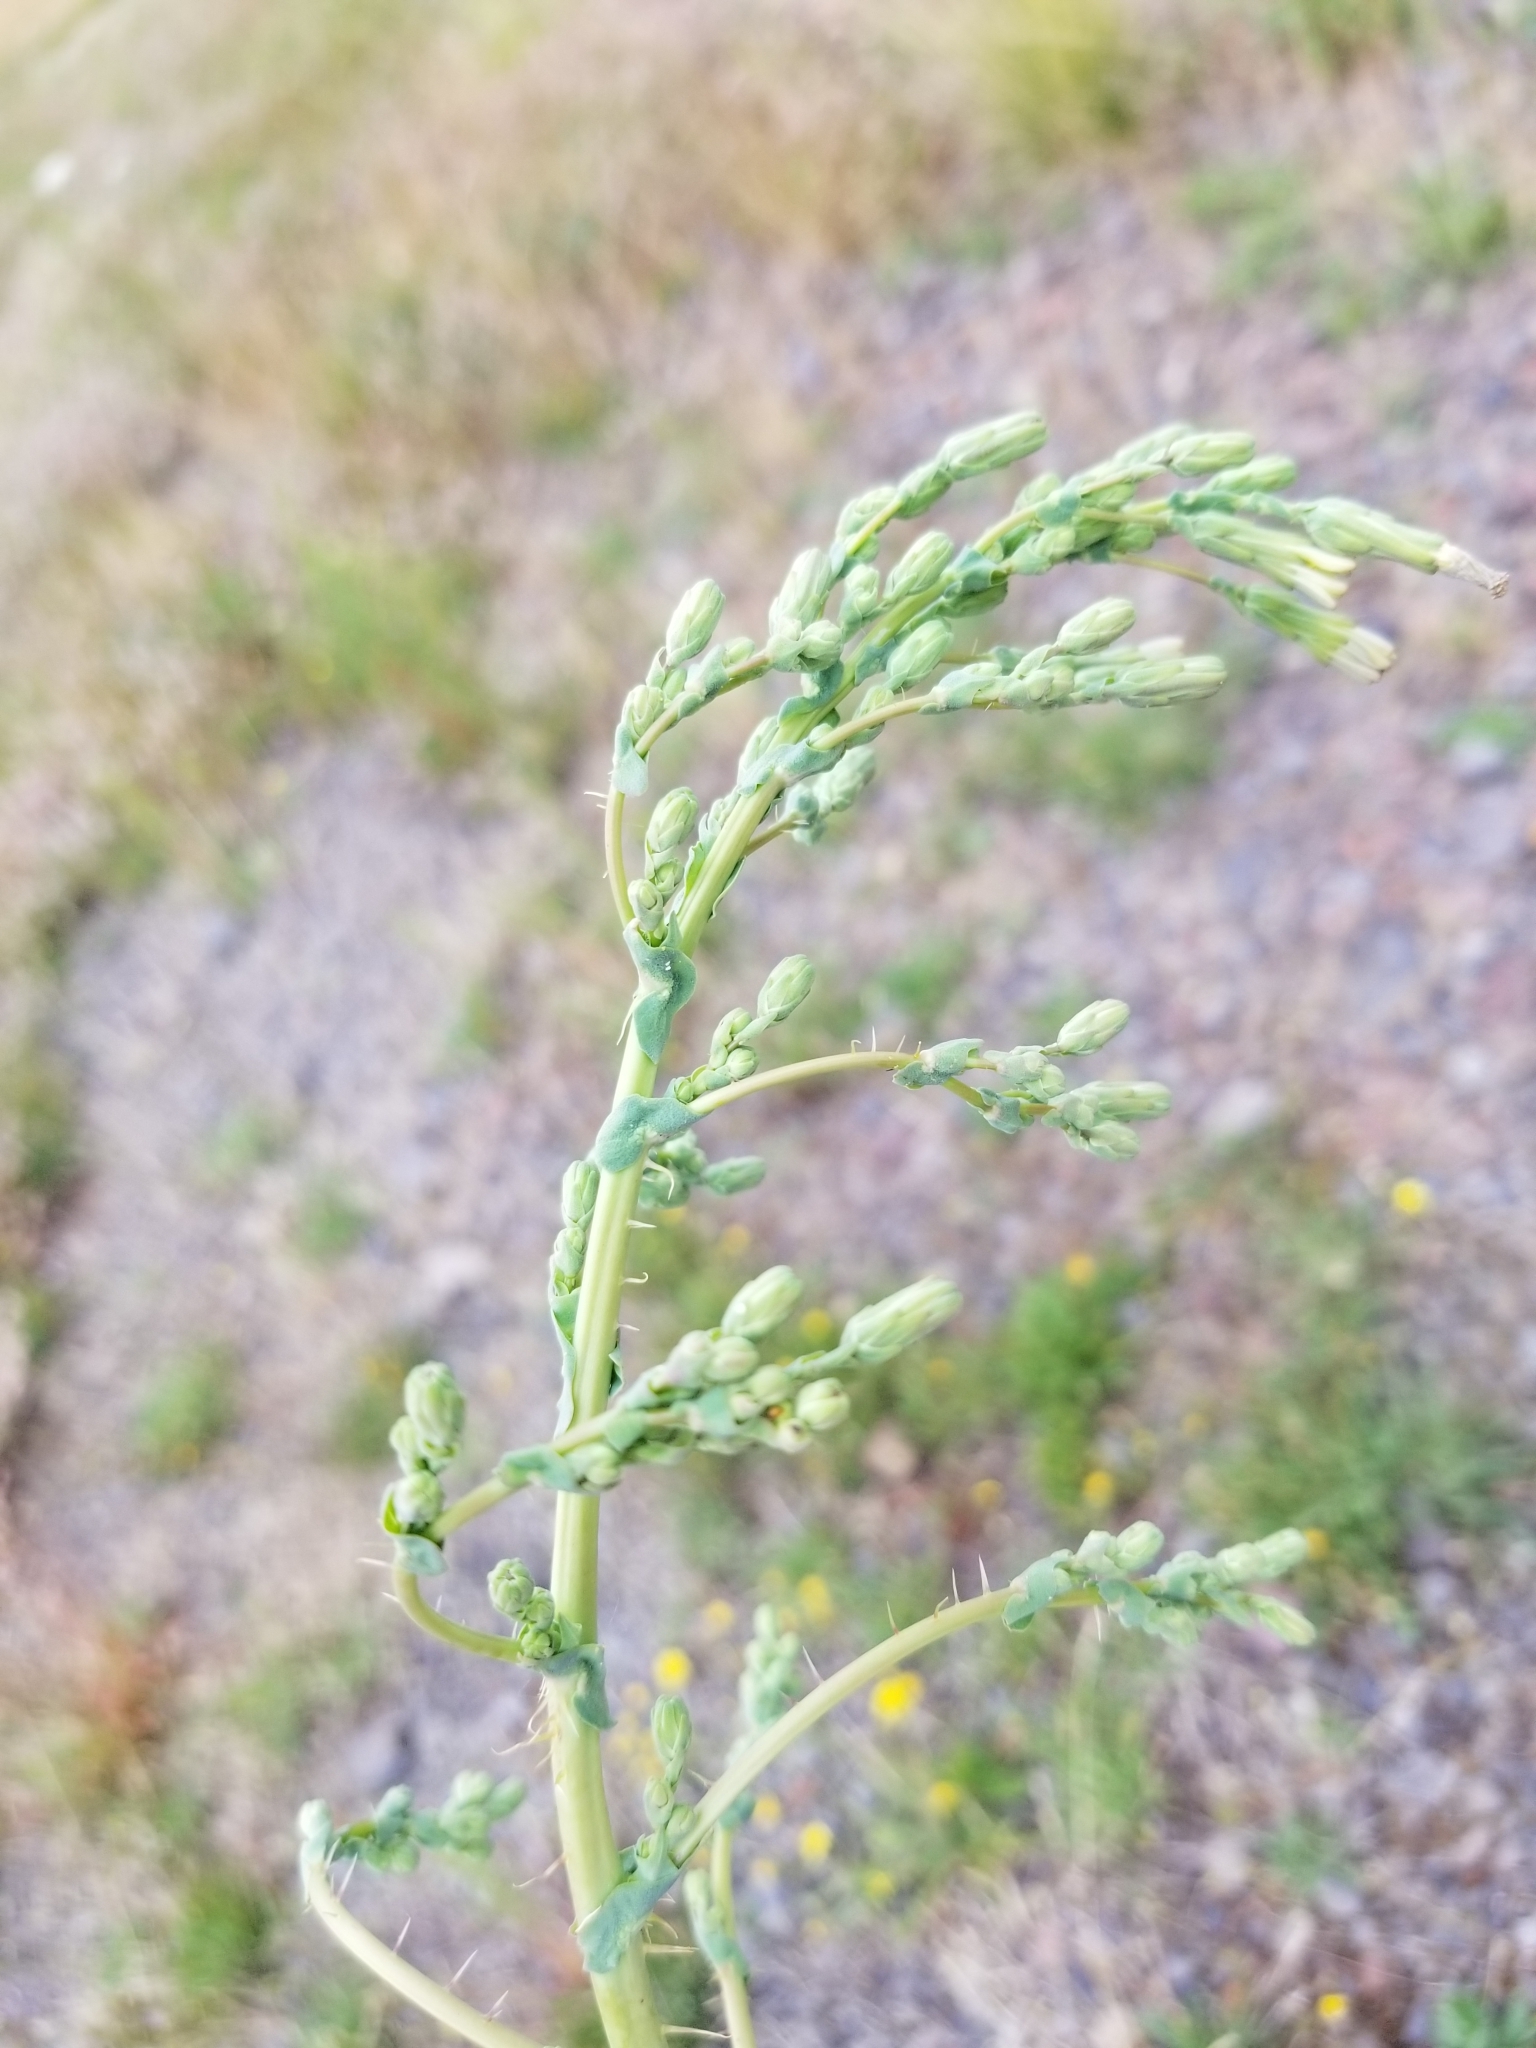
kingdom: Plantae
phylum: Tracheophyta
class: Magnoliopsida
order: Asterales
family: Asteraceae
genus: Lactuca
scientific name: Lactuca serriola
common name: Prickly lettuce
